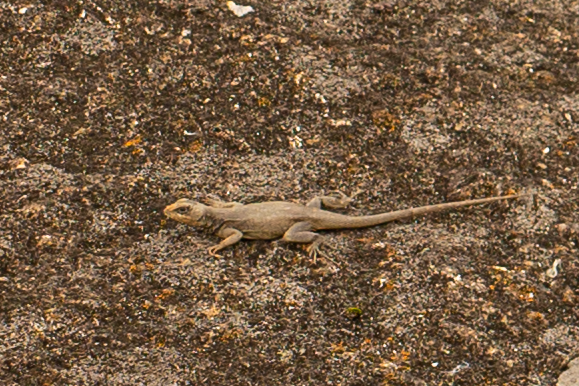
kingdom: Animalia
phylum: Chordata
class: Squamata
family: Tropiduridae
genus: Tropidurus
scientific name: Tropidurus torquatus
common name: Amazon lava lizard
